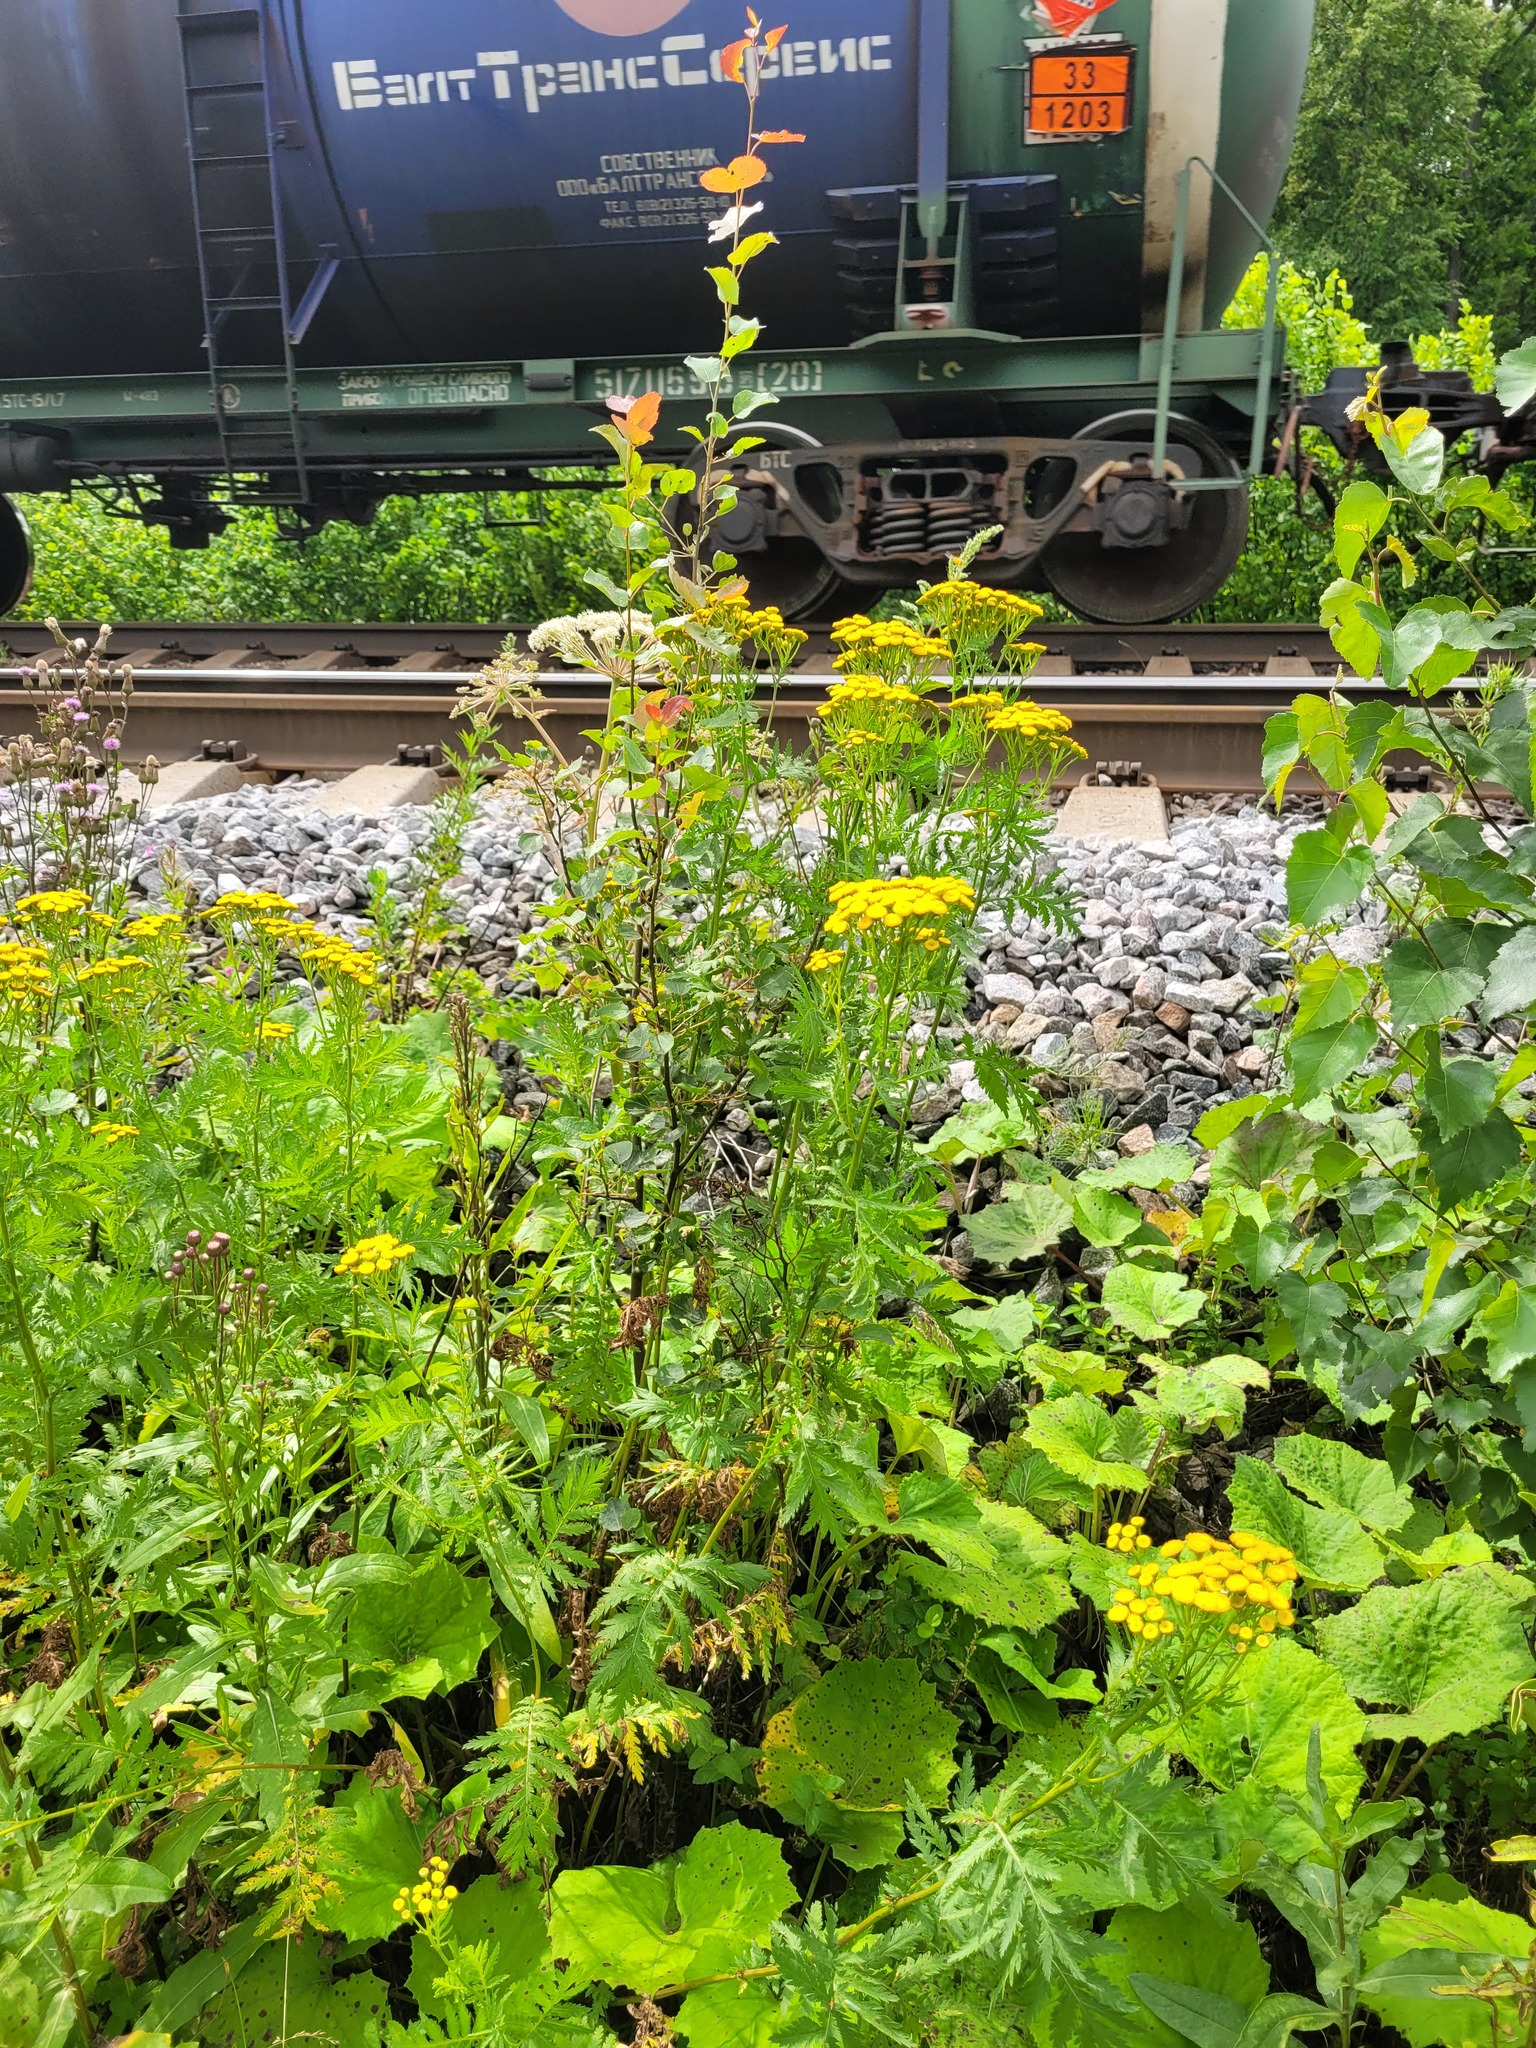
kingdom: Plantae
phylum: Tracheophyta
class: Magnoliopsida
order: Asterales
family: Asteraceae
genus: Tanacetum
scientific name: Tanacetum vulgare
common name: Common tansy
